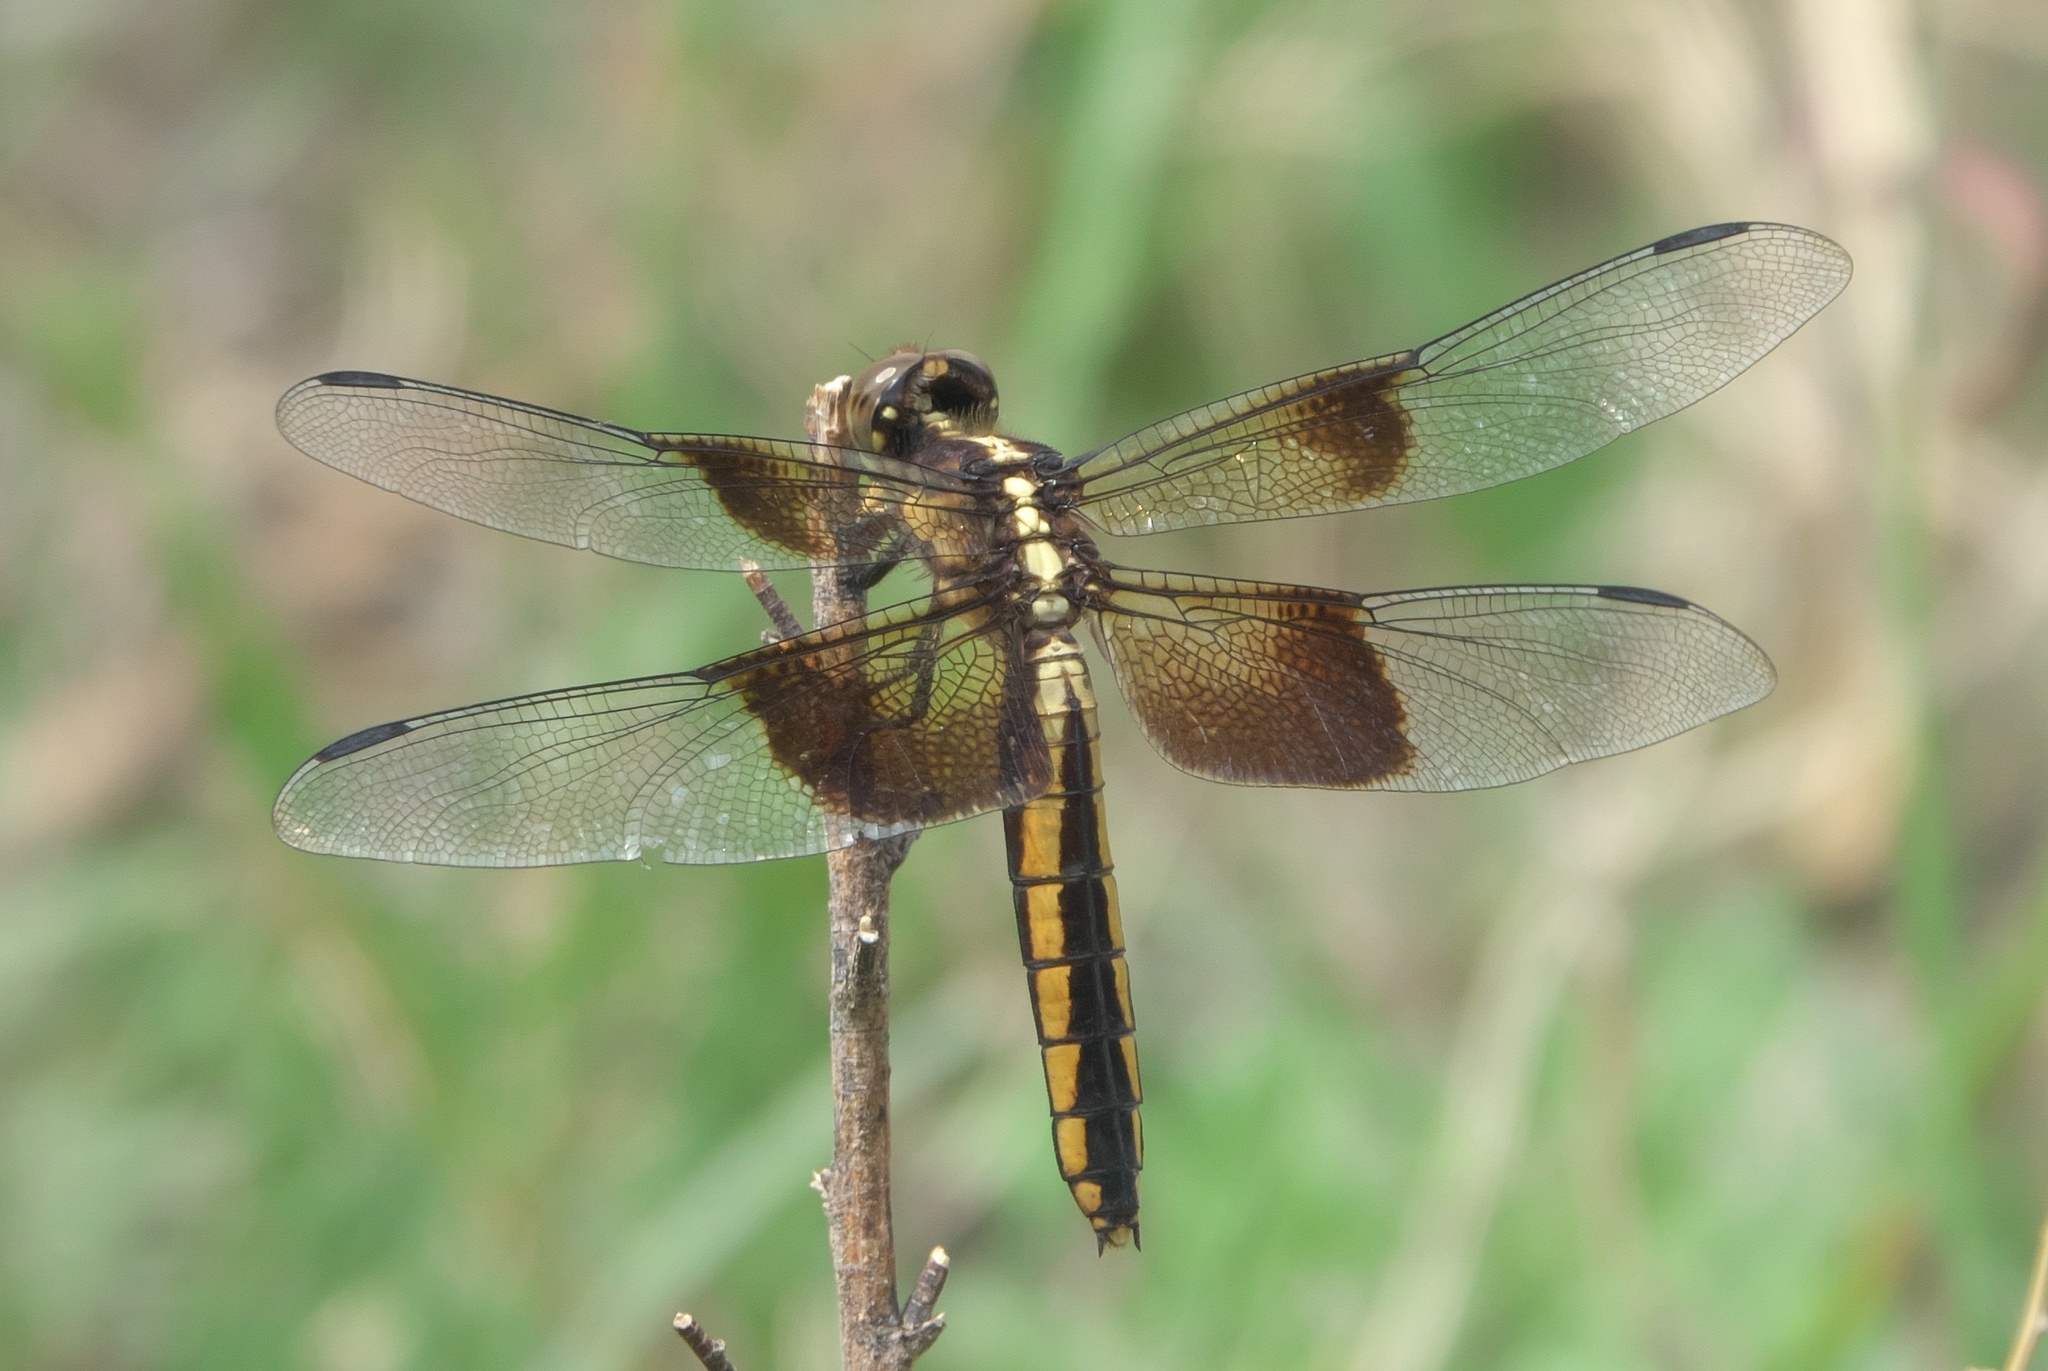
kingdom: Animalia
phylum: Arthropoda
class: Insecta
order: Odonata
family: Libellulidae
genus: Libellula
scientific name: Libellula luctuosa
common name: Widow skimmer
